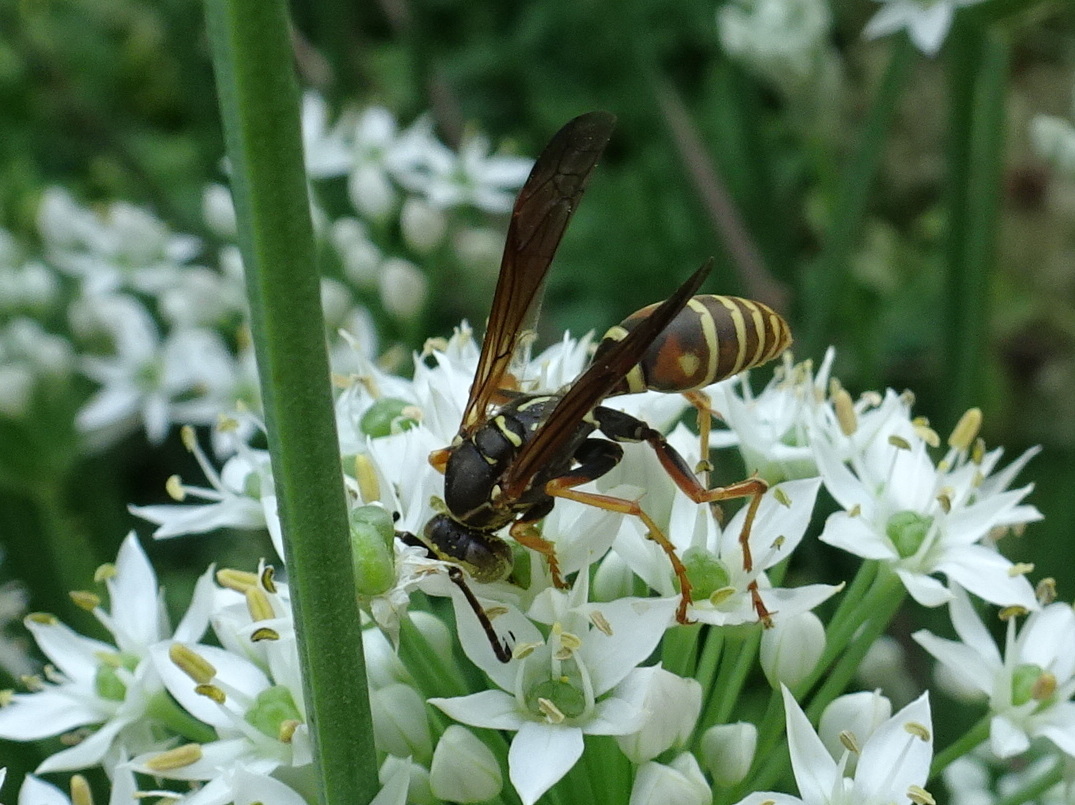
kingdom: Animalia
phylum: Arthropoda
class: Insecta
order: Hymenoptera
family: Eumenidae
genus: Polistes
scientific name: Polistes fuscatus
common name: Dark paper wasp
